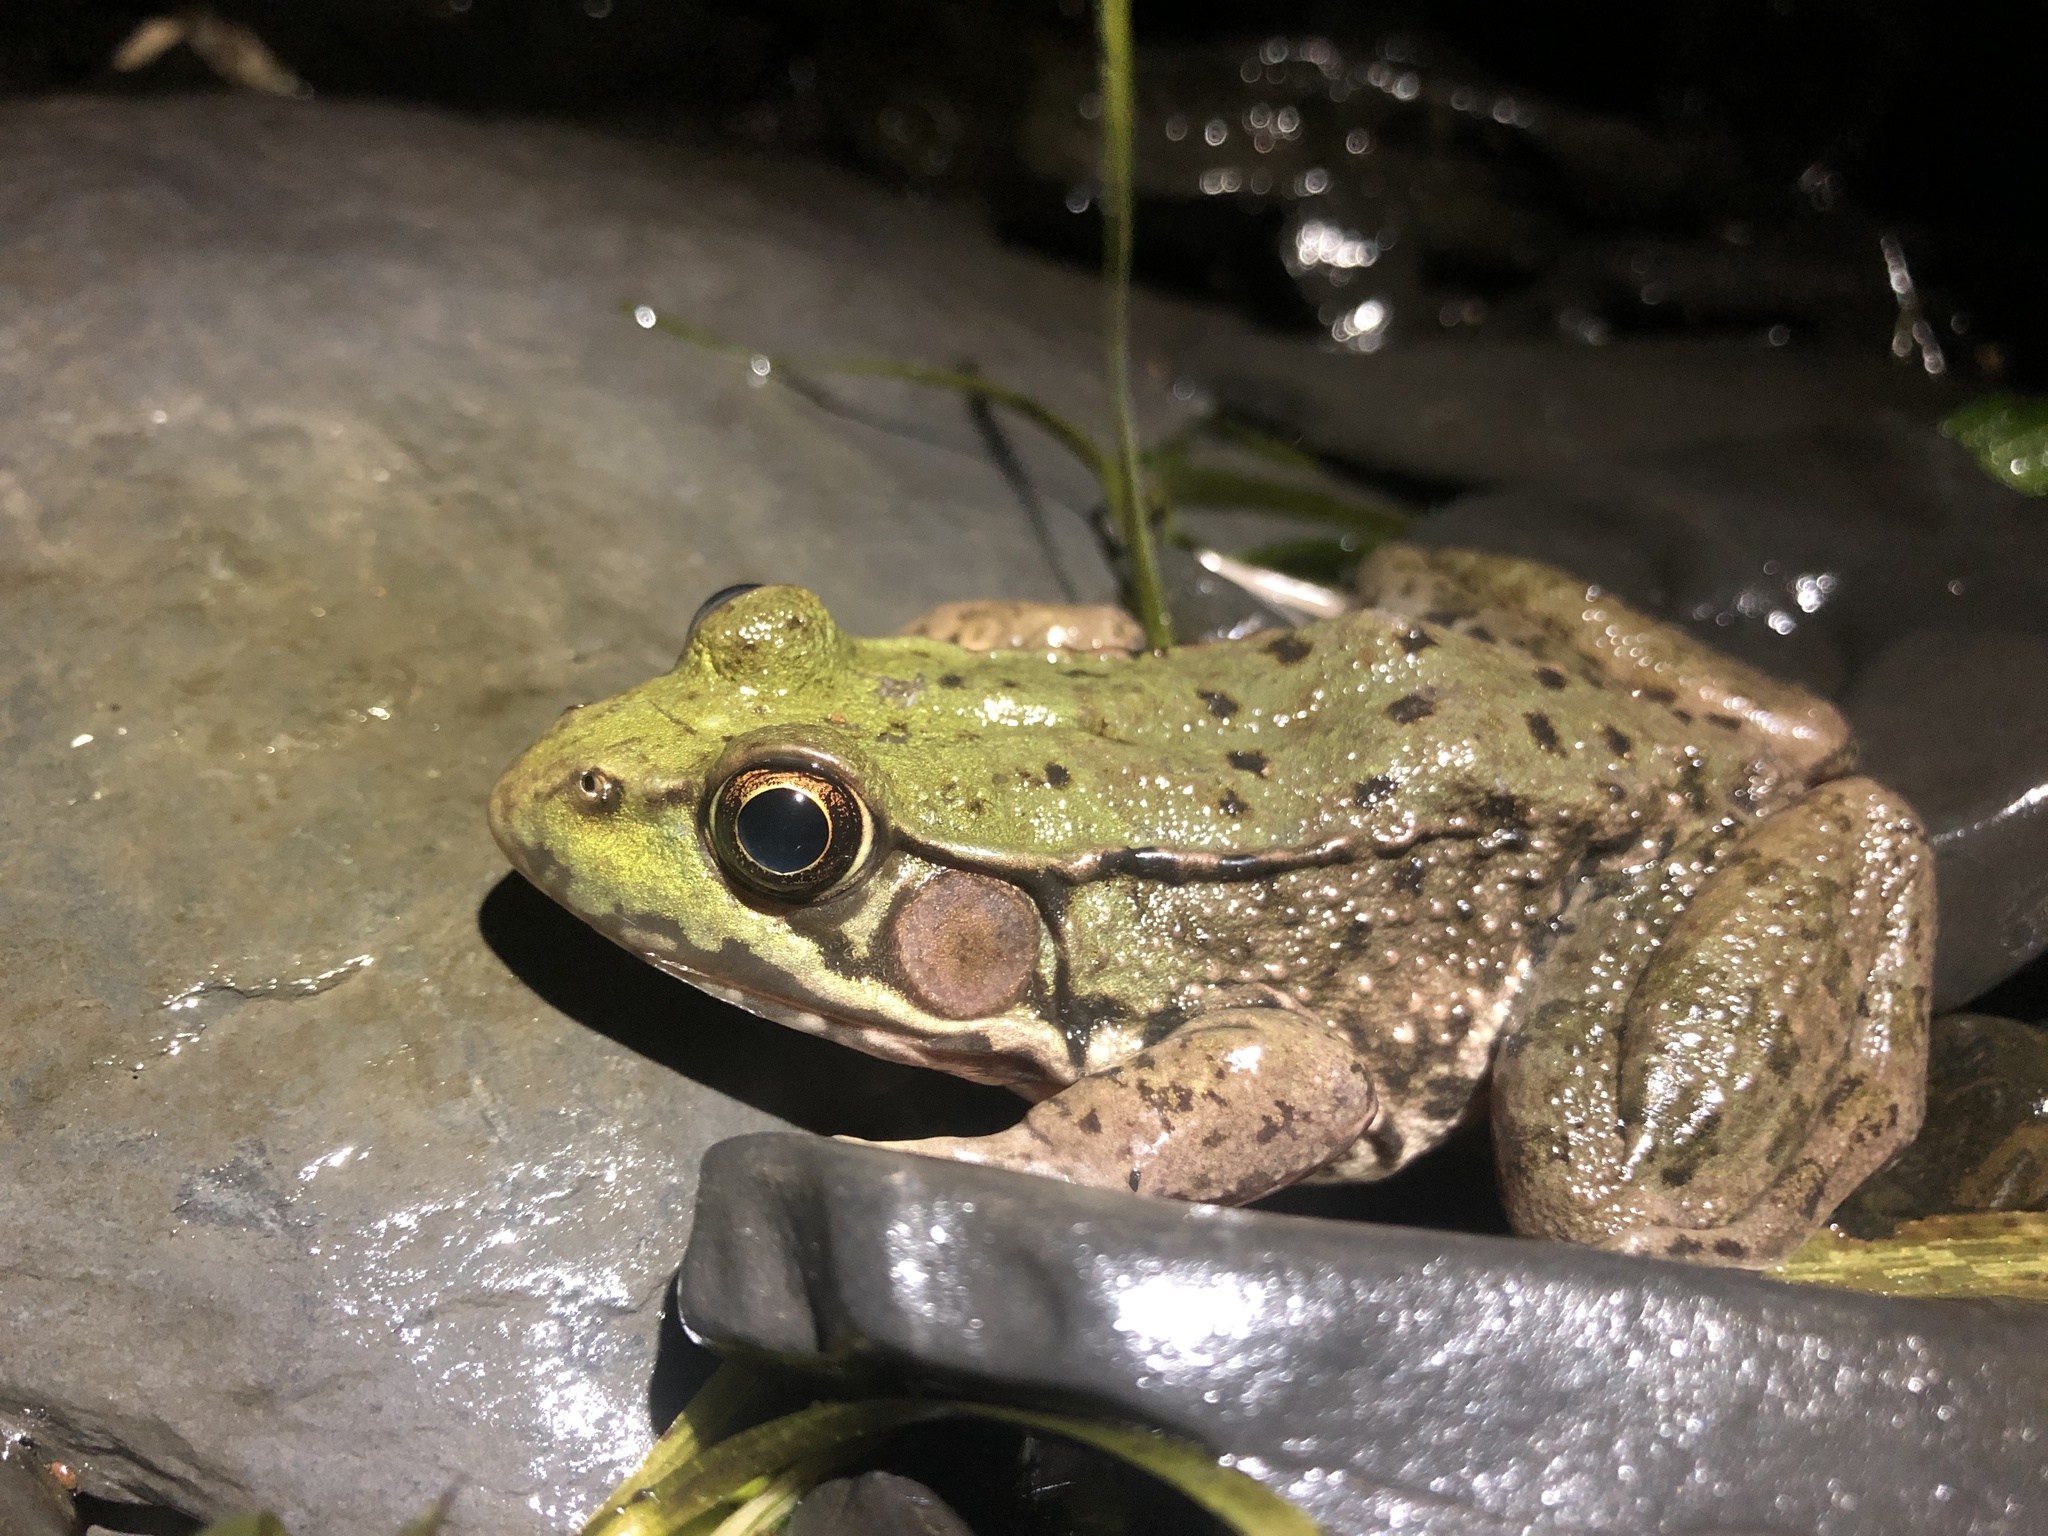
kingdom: Animalia
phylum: Chordata
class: Amphibia
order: Anura
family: Ranidae
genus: Lithobates
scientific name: Lithobates clamitans
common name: Green frog
